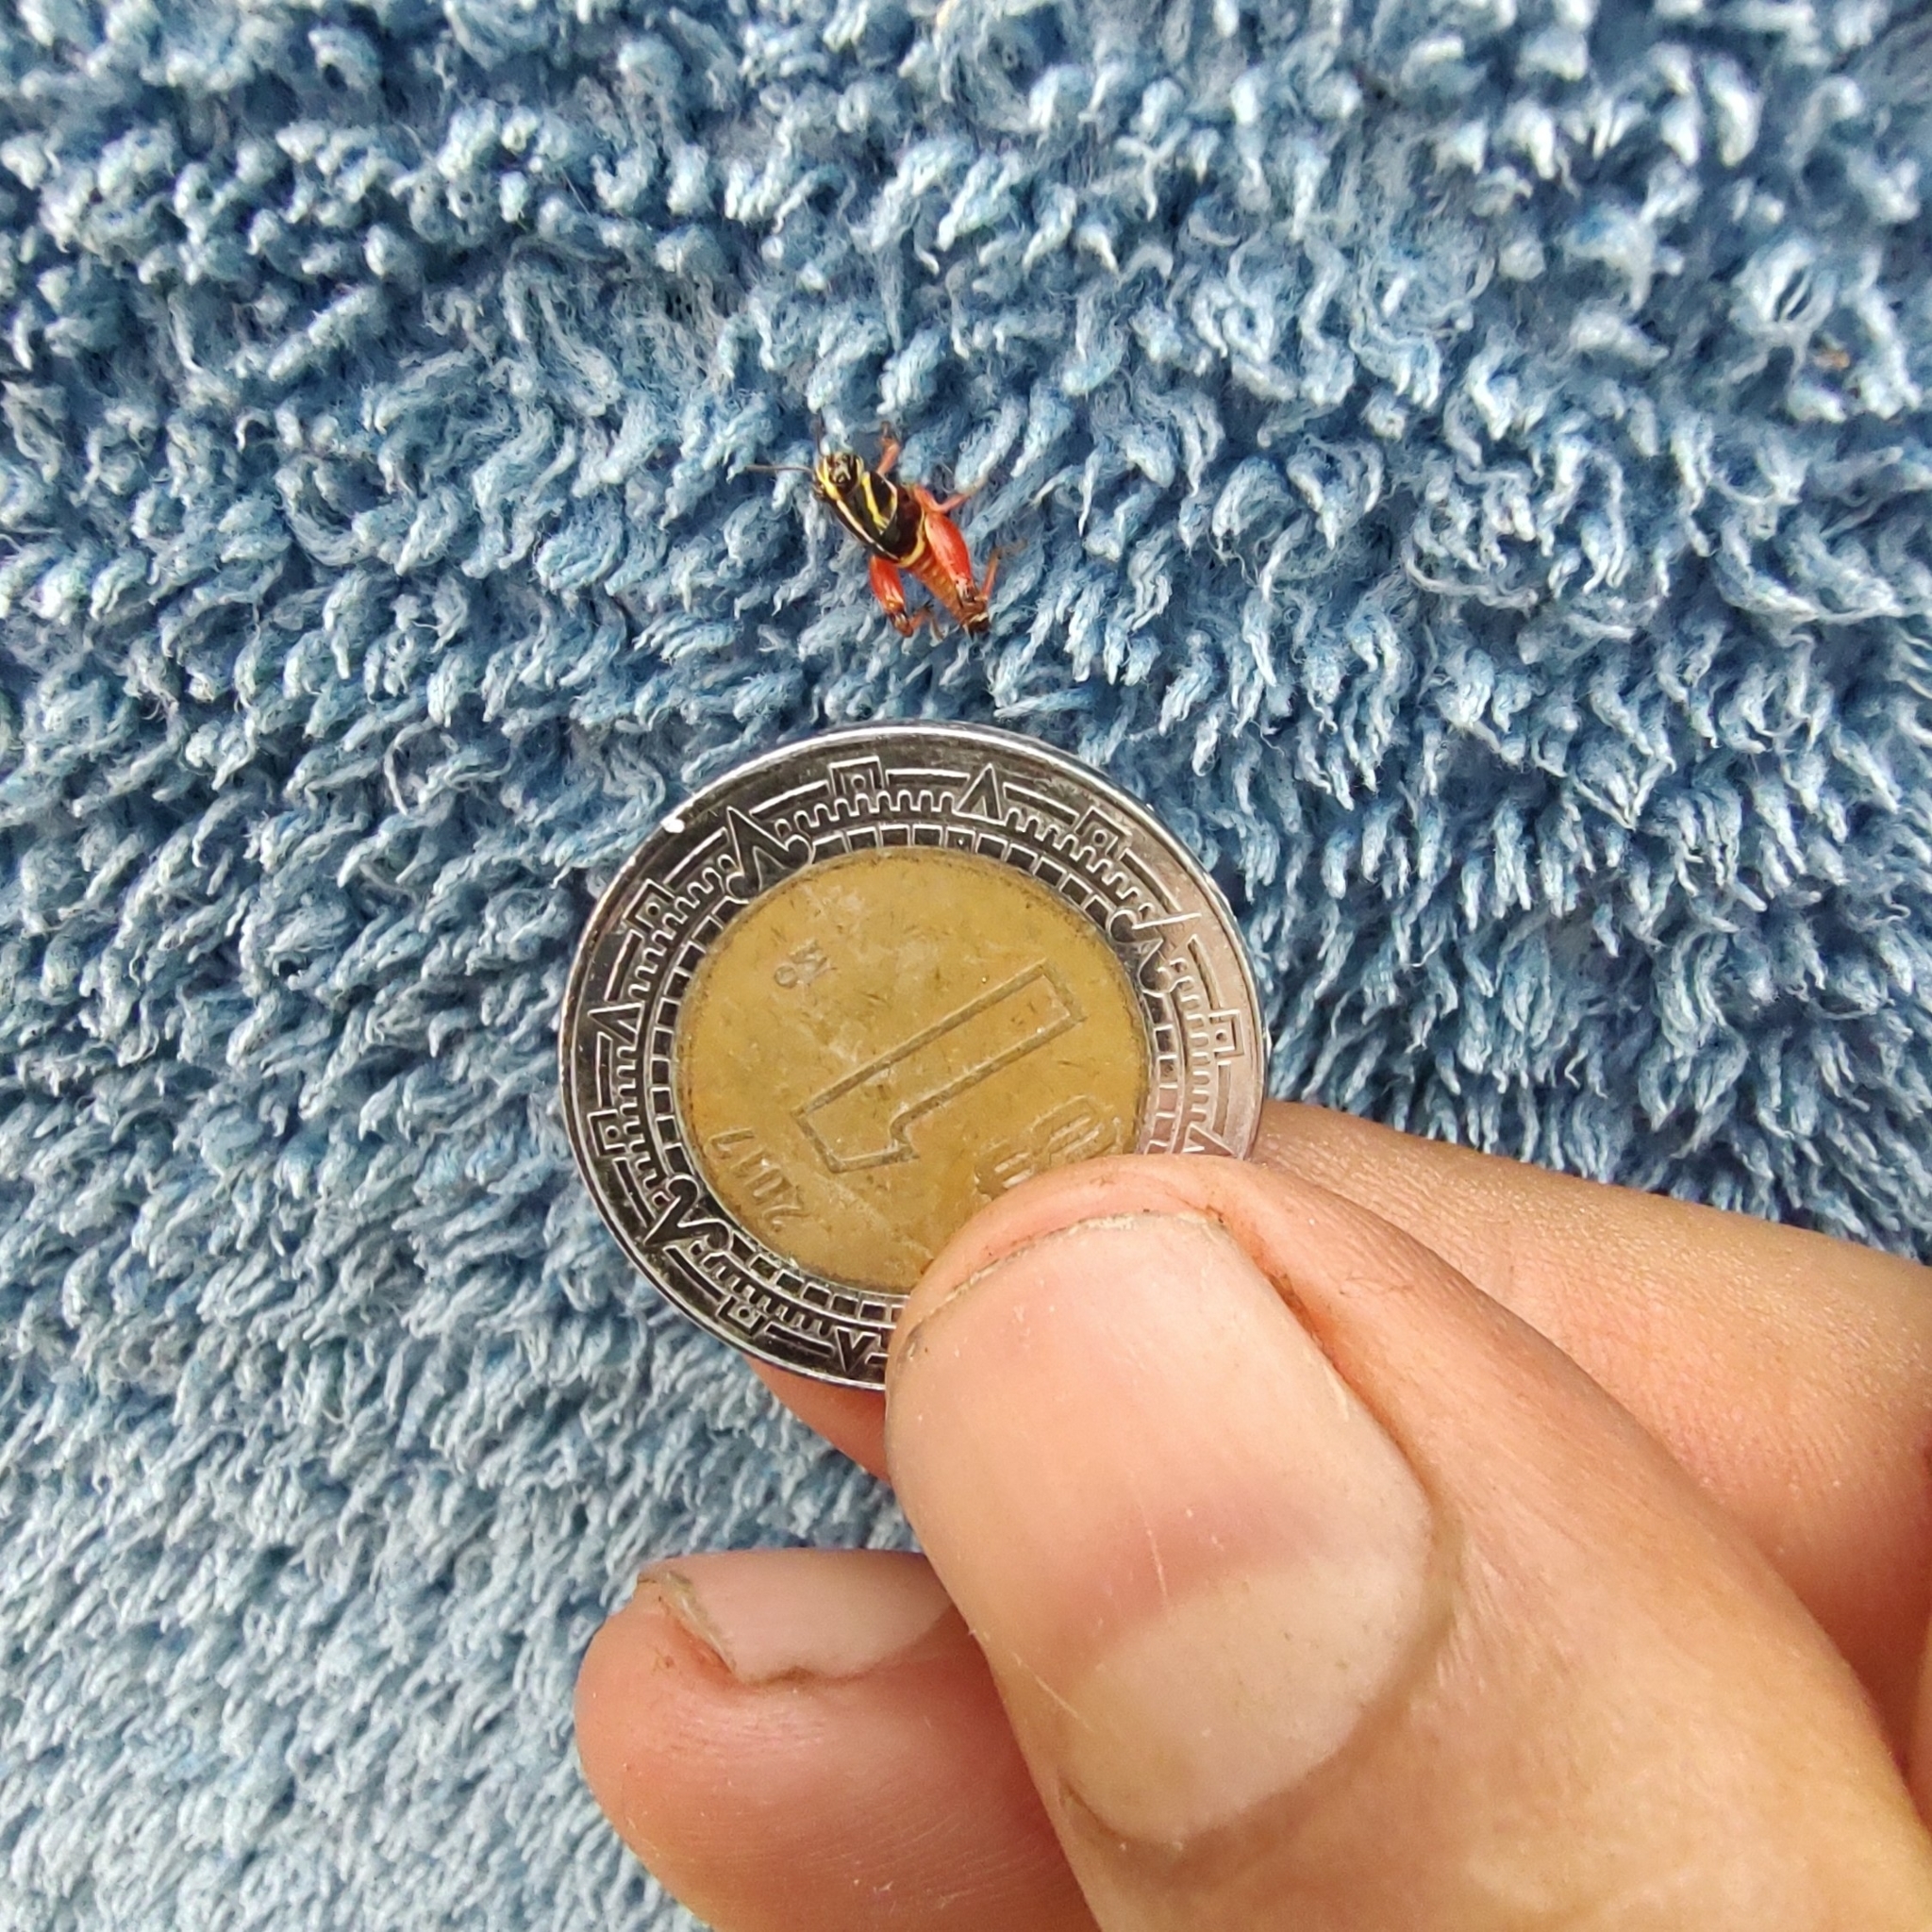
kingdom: Animalia
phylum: Arthropoda
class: Insecta
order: Orthoptera
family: Acrididae
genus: Aidemona
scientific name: Aidemona azteca
